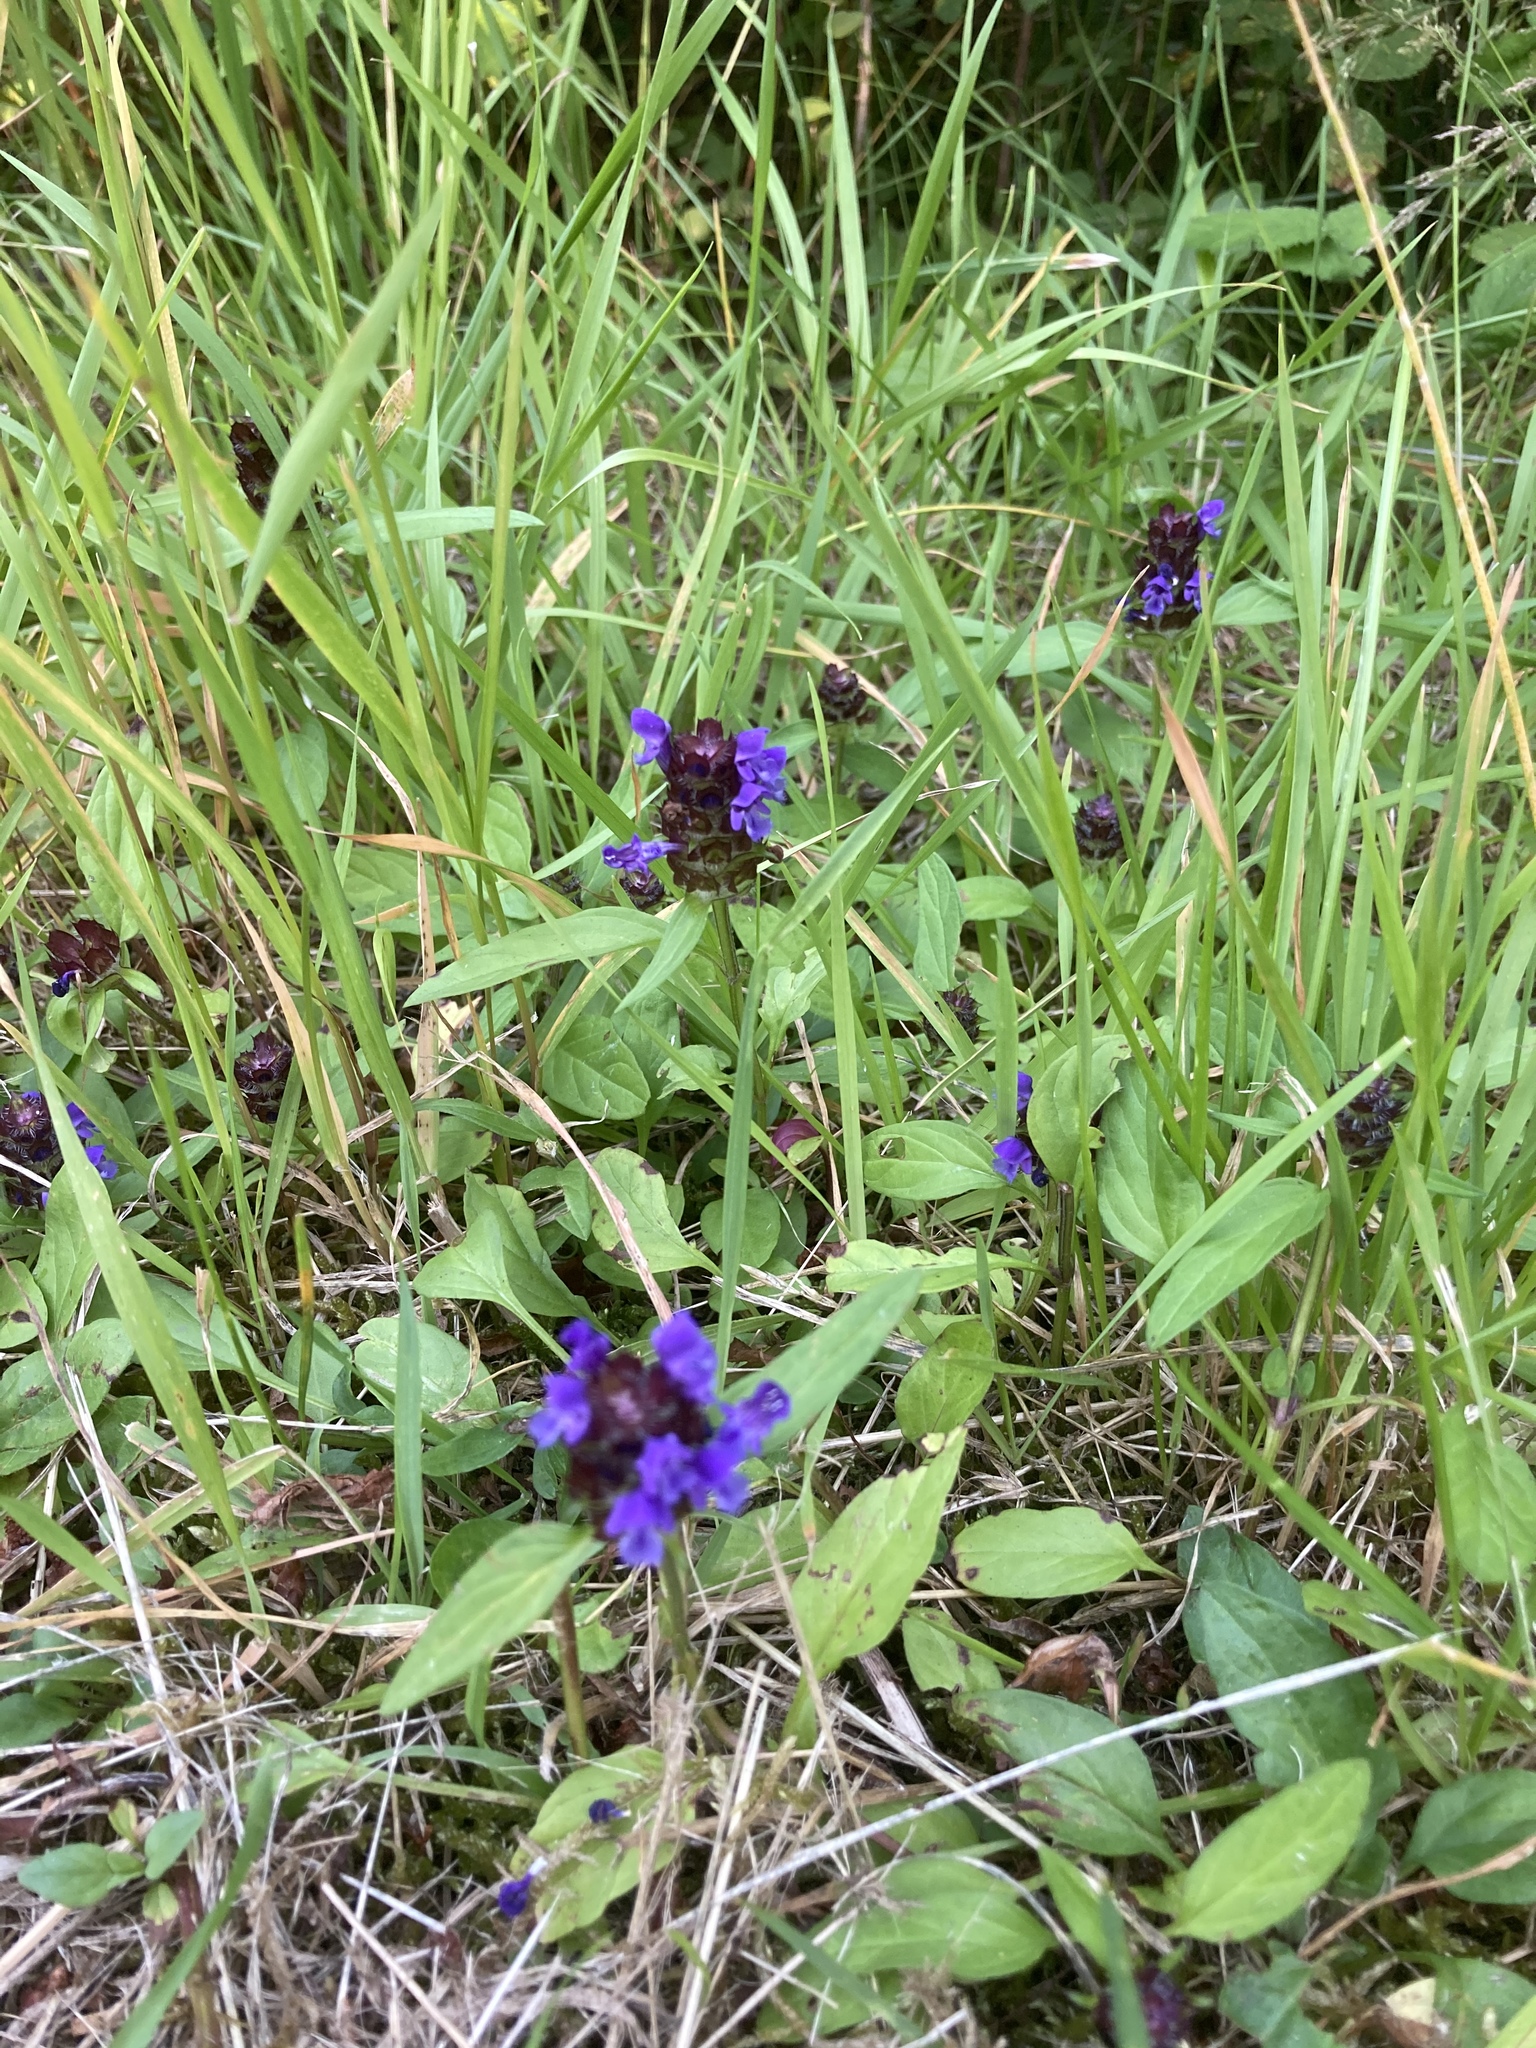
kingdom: Plantae
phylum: Tracheophyta
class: Magnoliopsida
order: Lamiales
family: Lamiaceae
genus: Prunella
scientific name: Prunella vulgaris
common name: Heal-all
